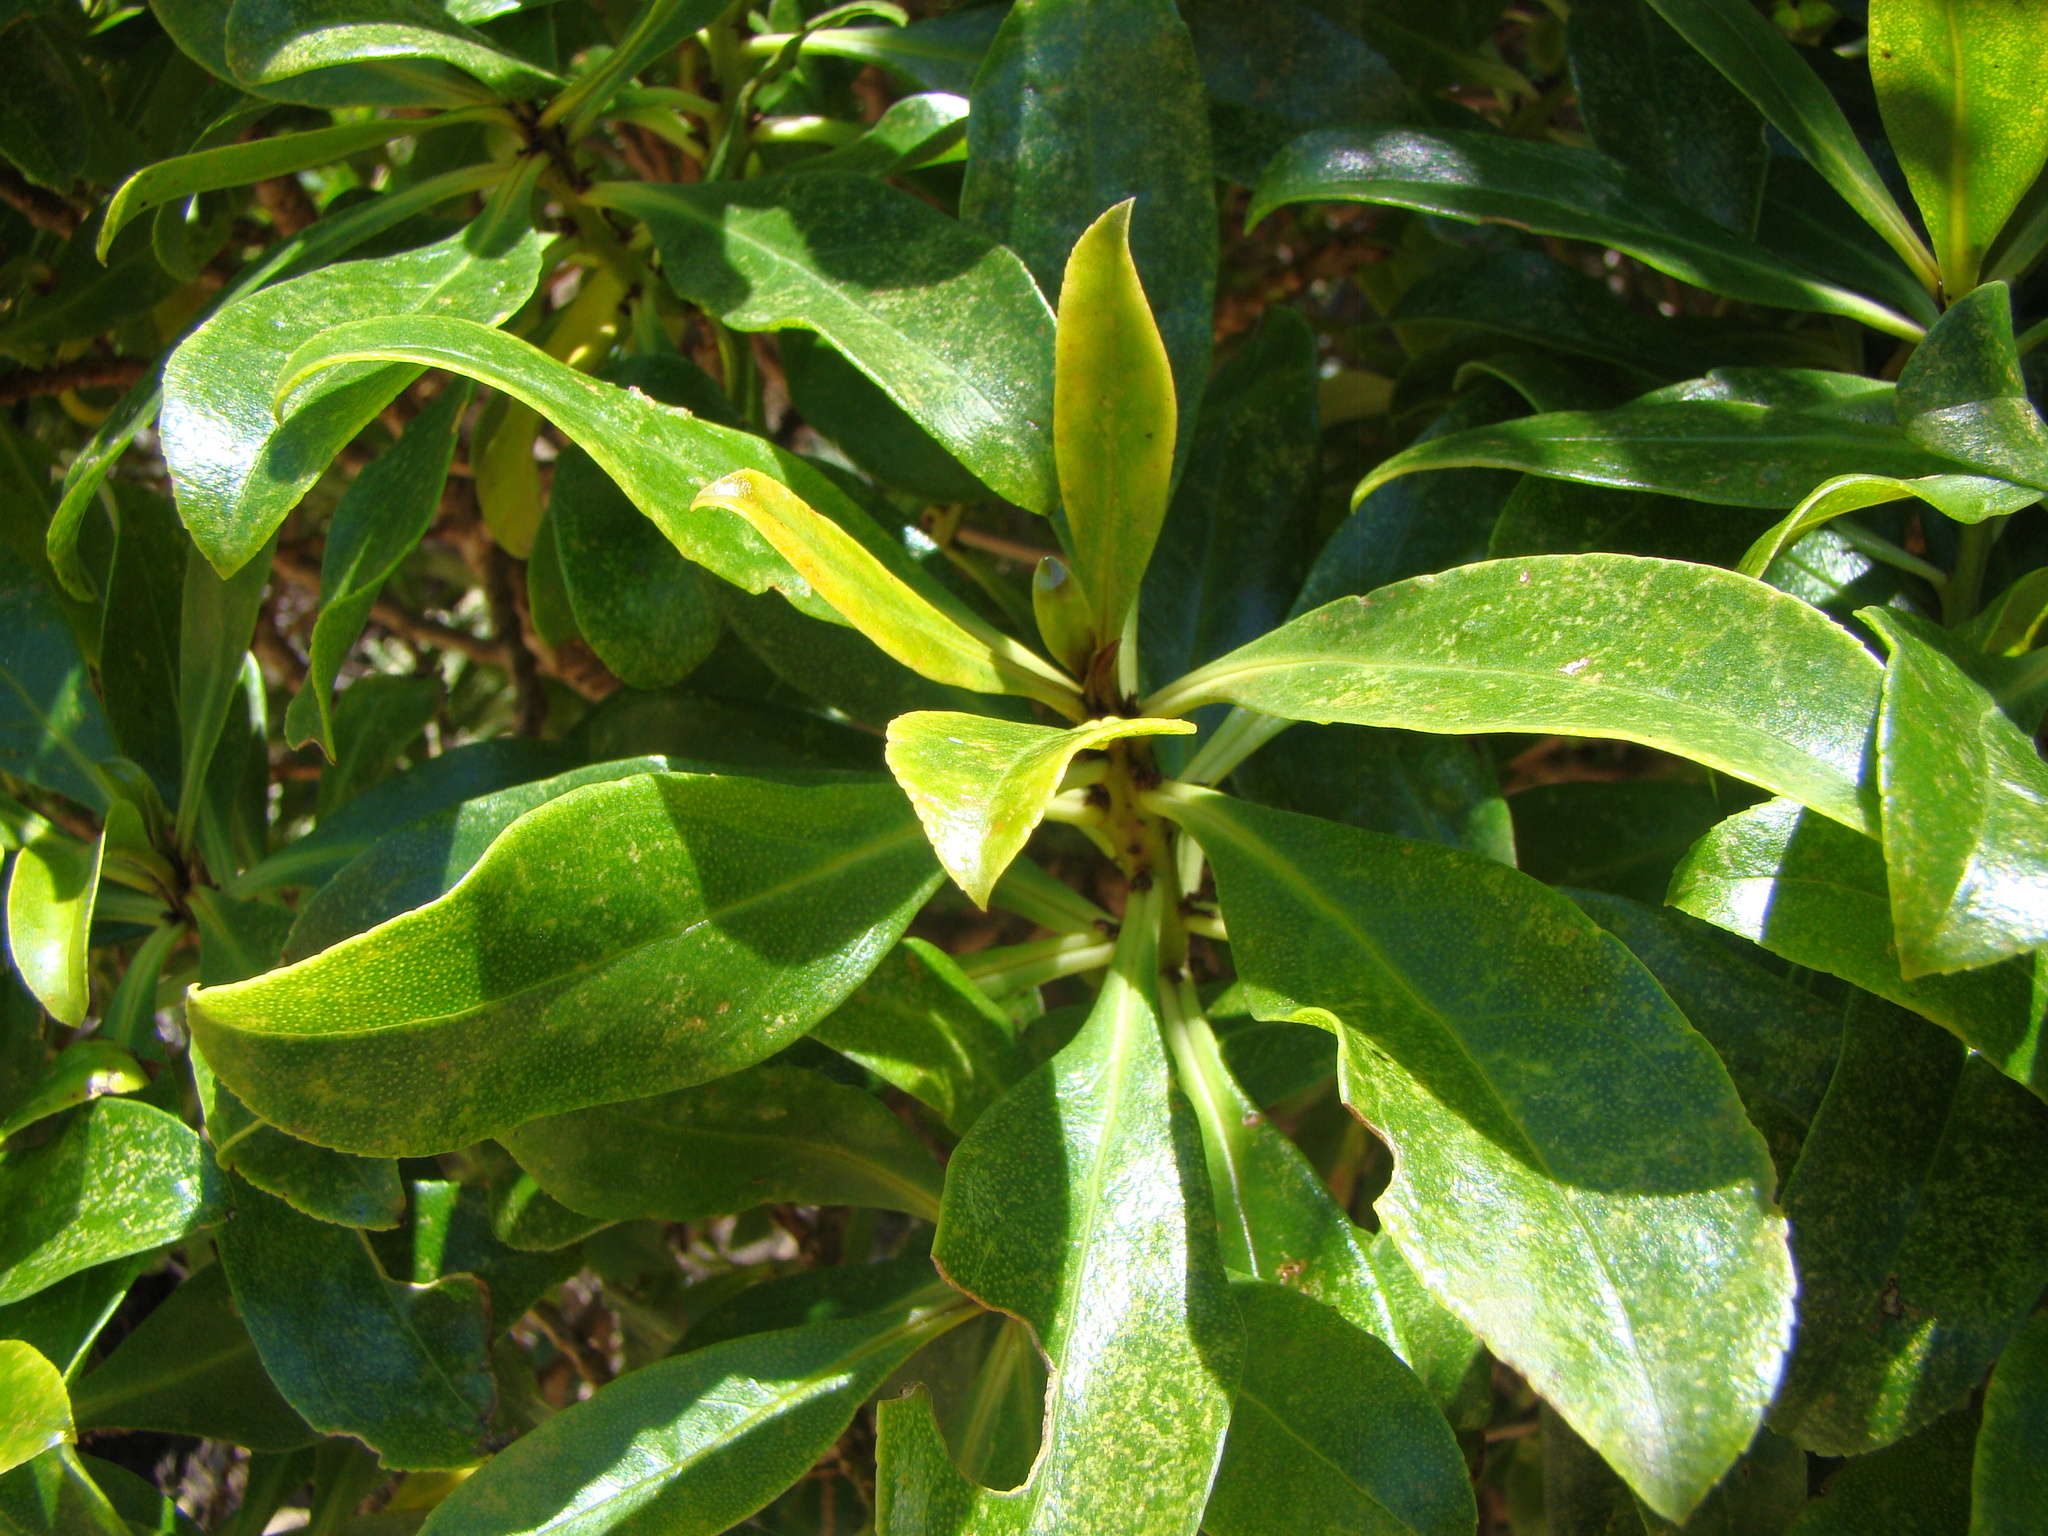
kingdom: Plantae
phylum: Tracheophyta
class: Magnoliopsida
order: Lamiales
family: Scrophulariaceae
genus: Myoporum
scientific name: Myoporum laetum
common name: Ngaio tree
